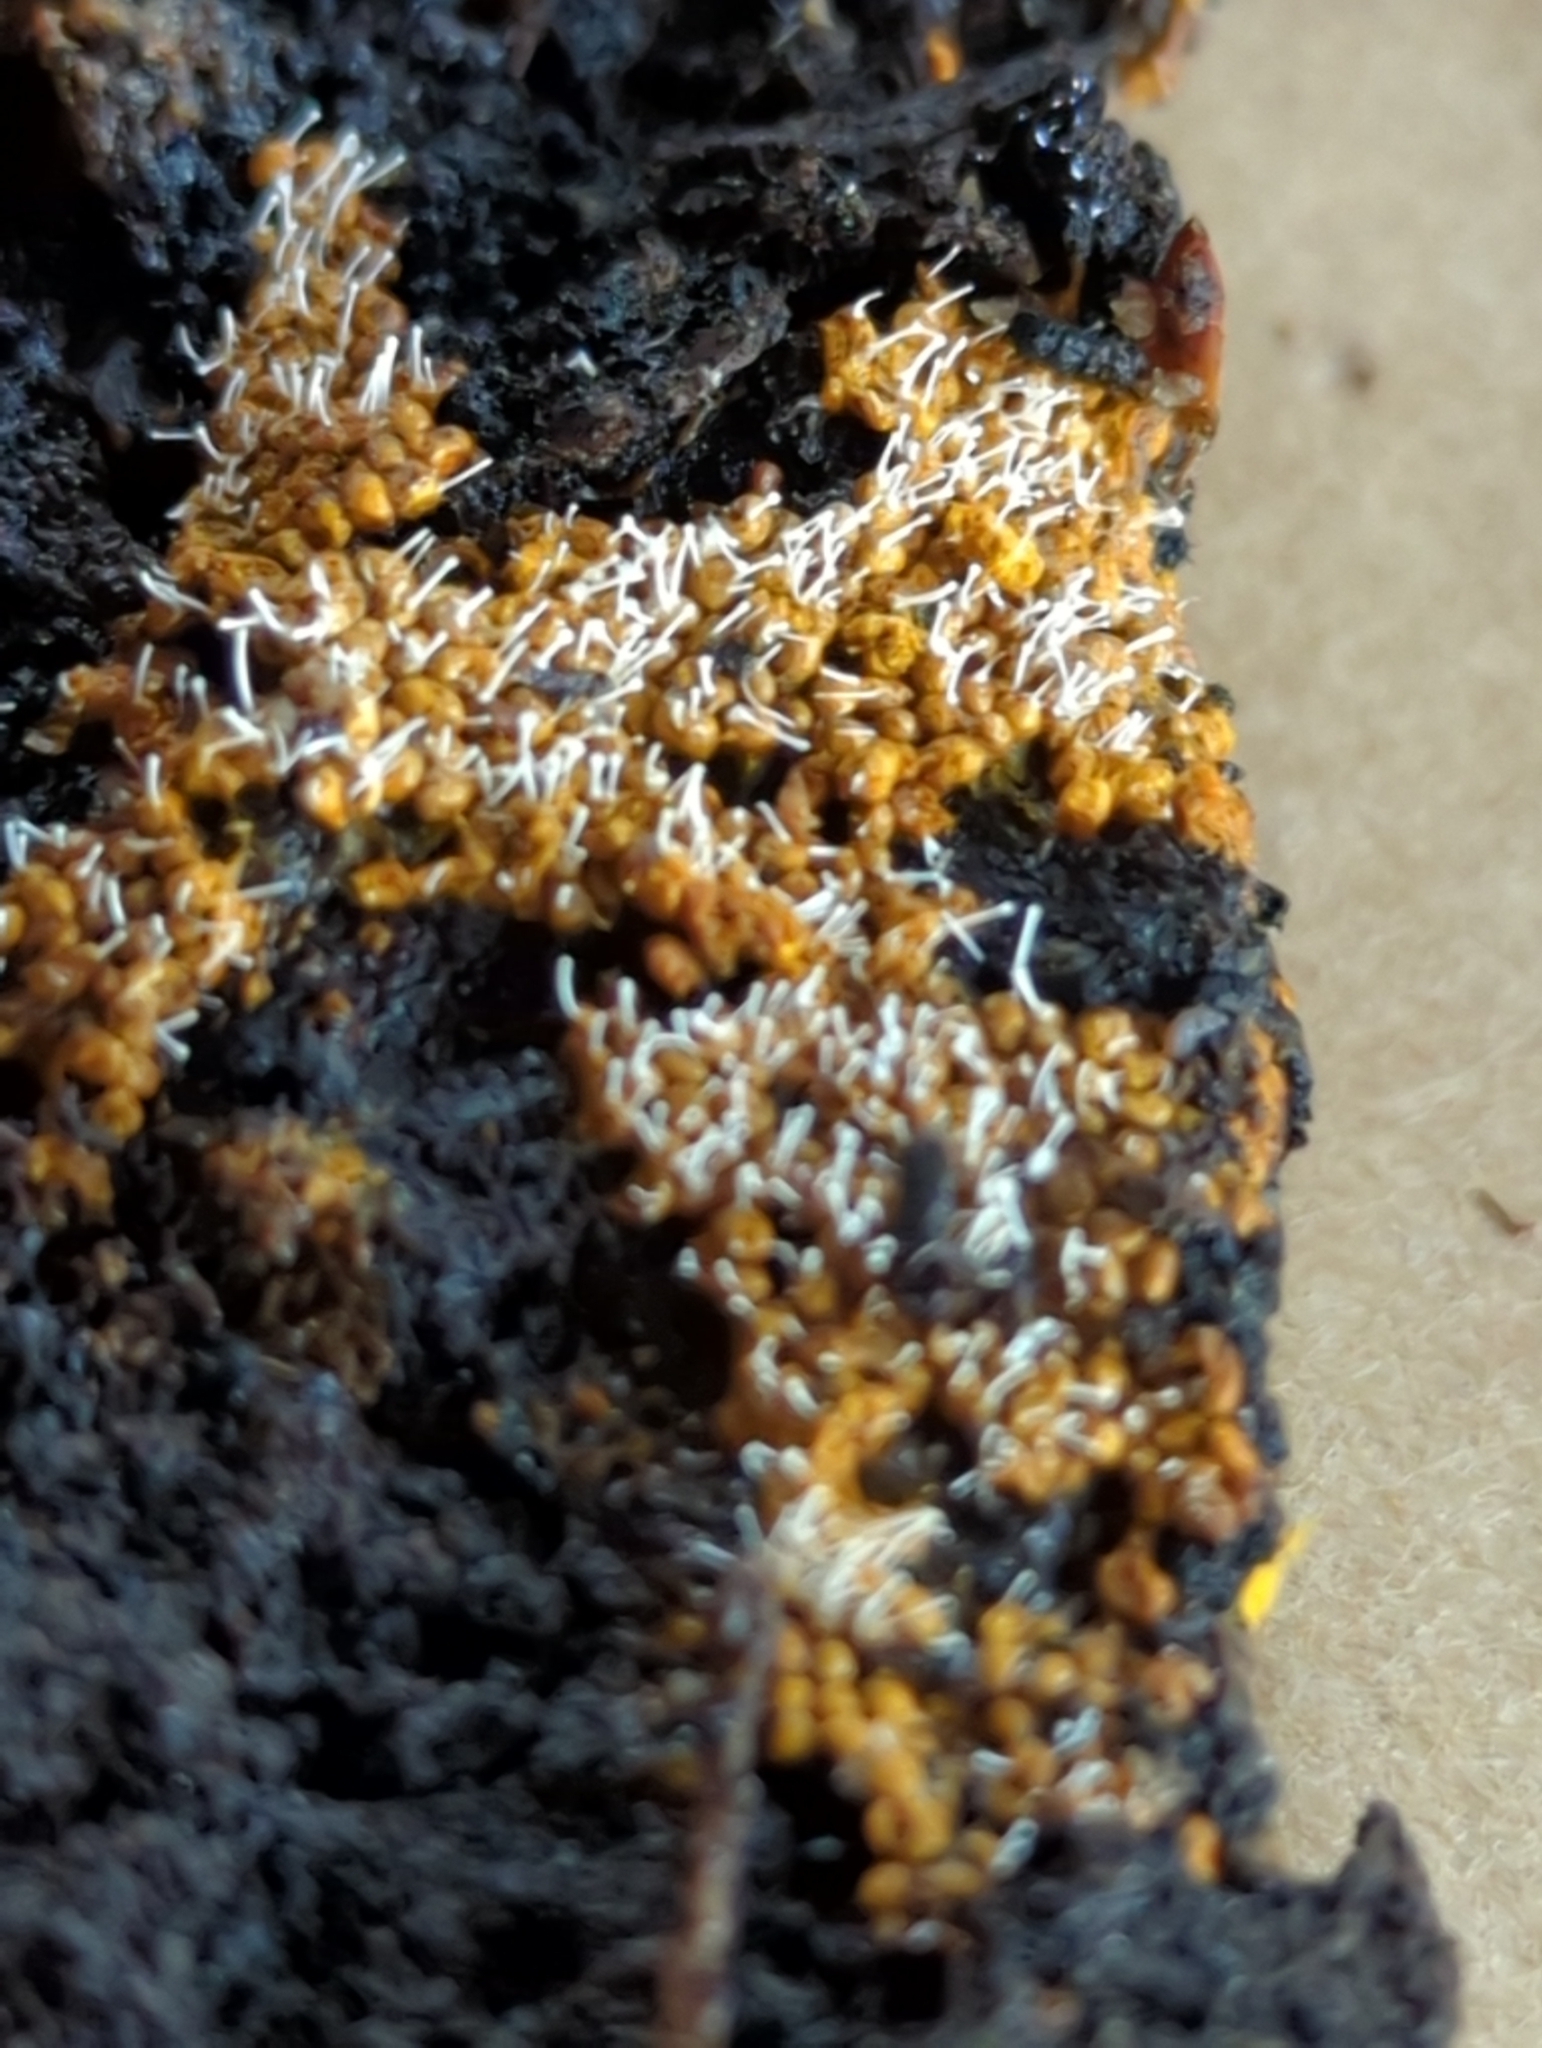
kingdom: Fungi
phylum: Ascomycota
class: Sordariomycetes
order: Hypocreales
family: Ophiocordycipitaceae
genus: Polycephalomyces
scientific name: Polycephalomyces tomentosus
